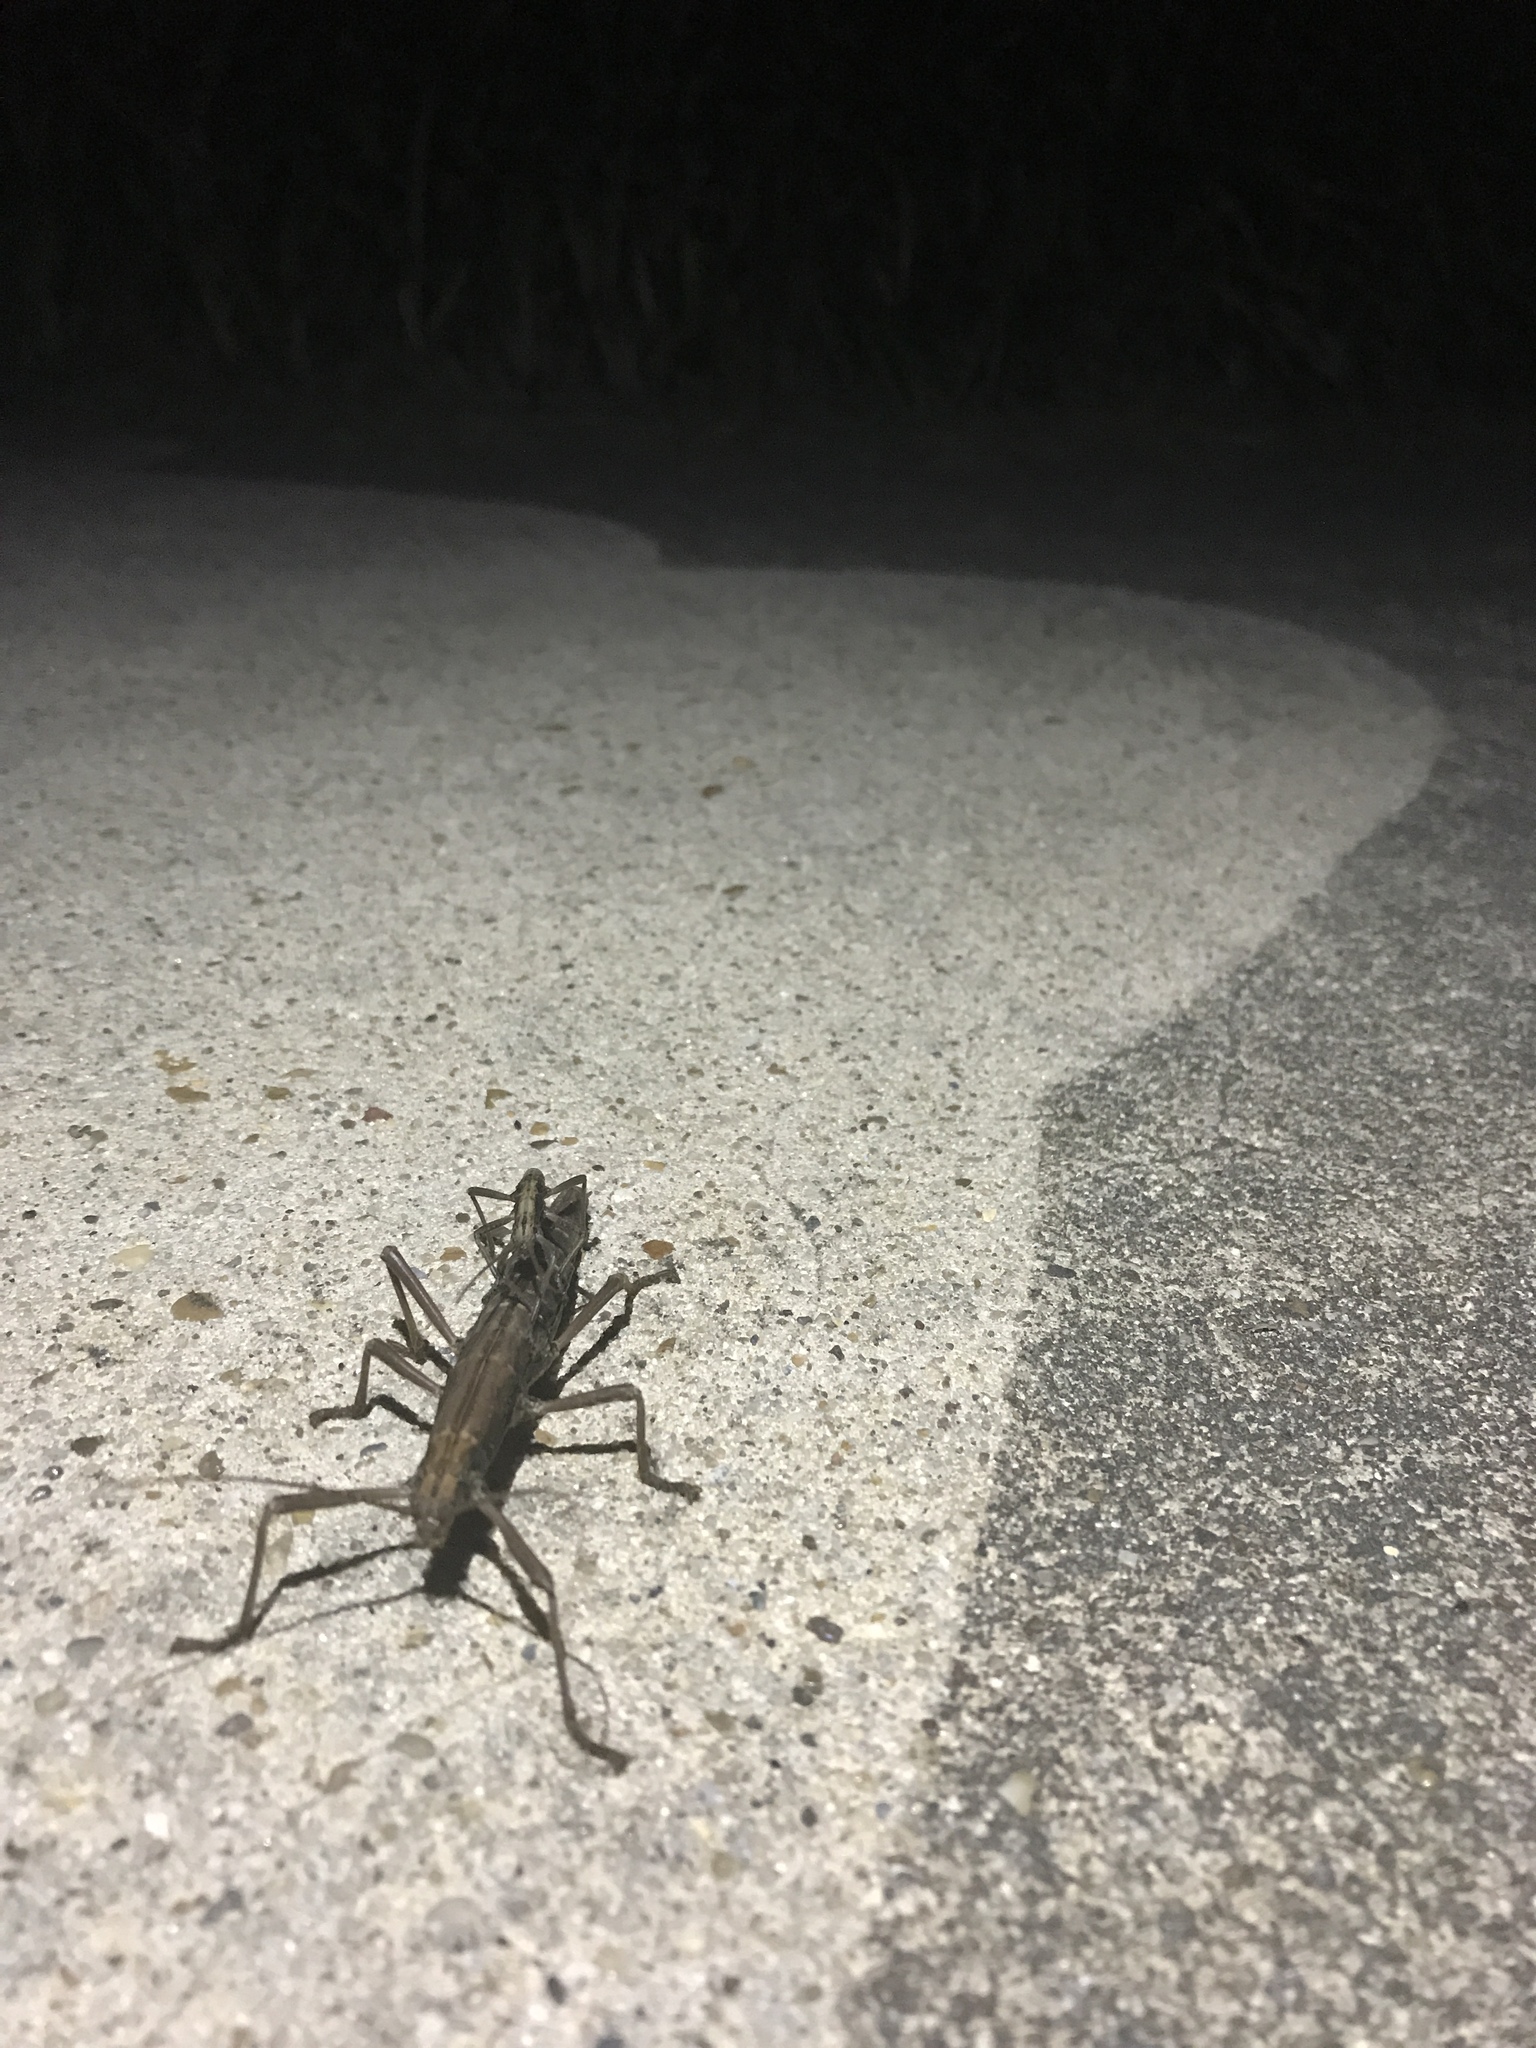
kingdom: Animalia
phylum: Arthropoda
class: Insecta
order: Phasmida
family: Pseudophasmatidae
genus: Anisomorpha
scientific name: Anisomorpha buprestoides
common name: Florida stick insect
